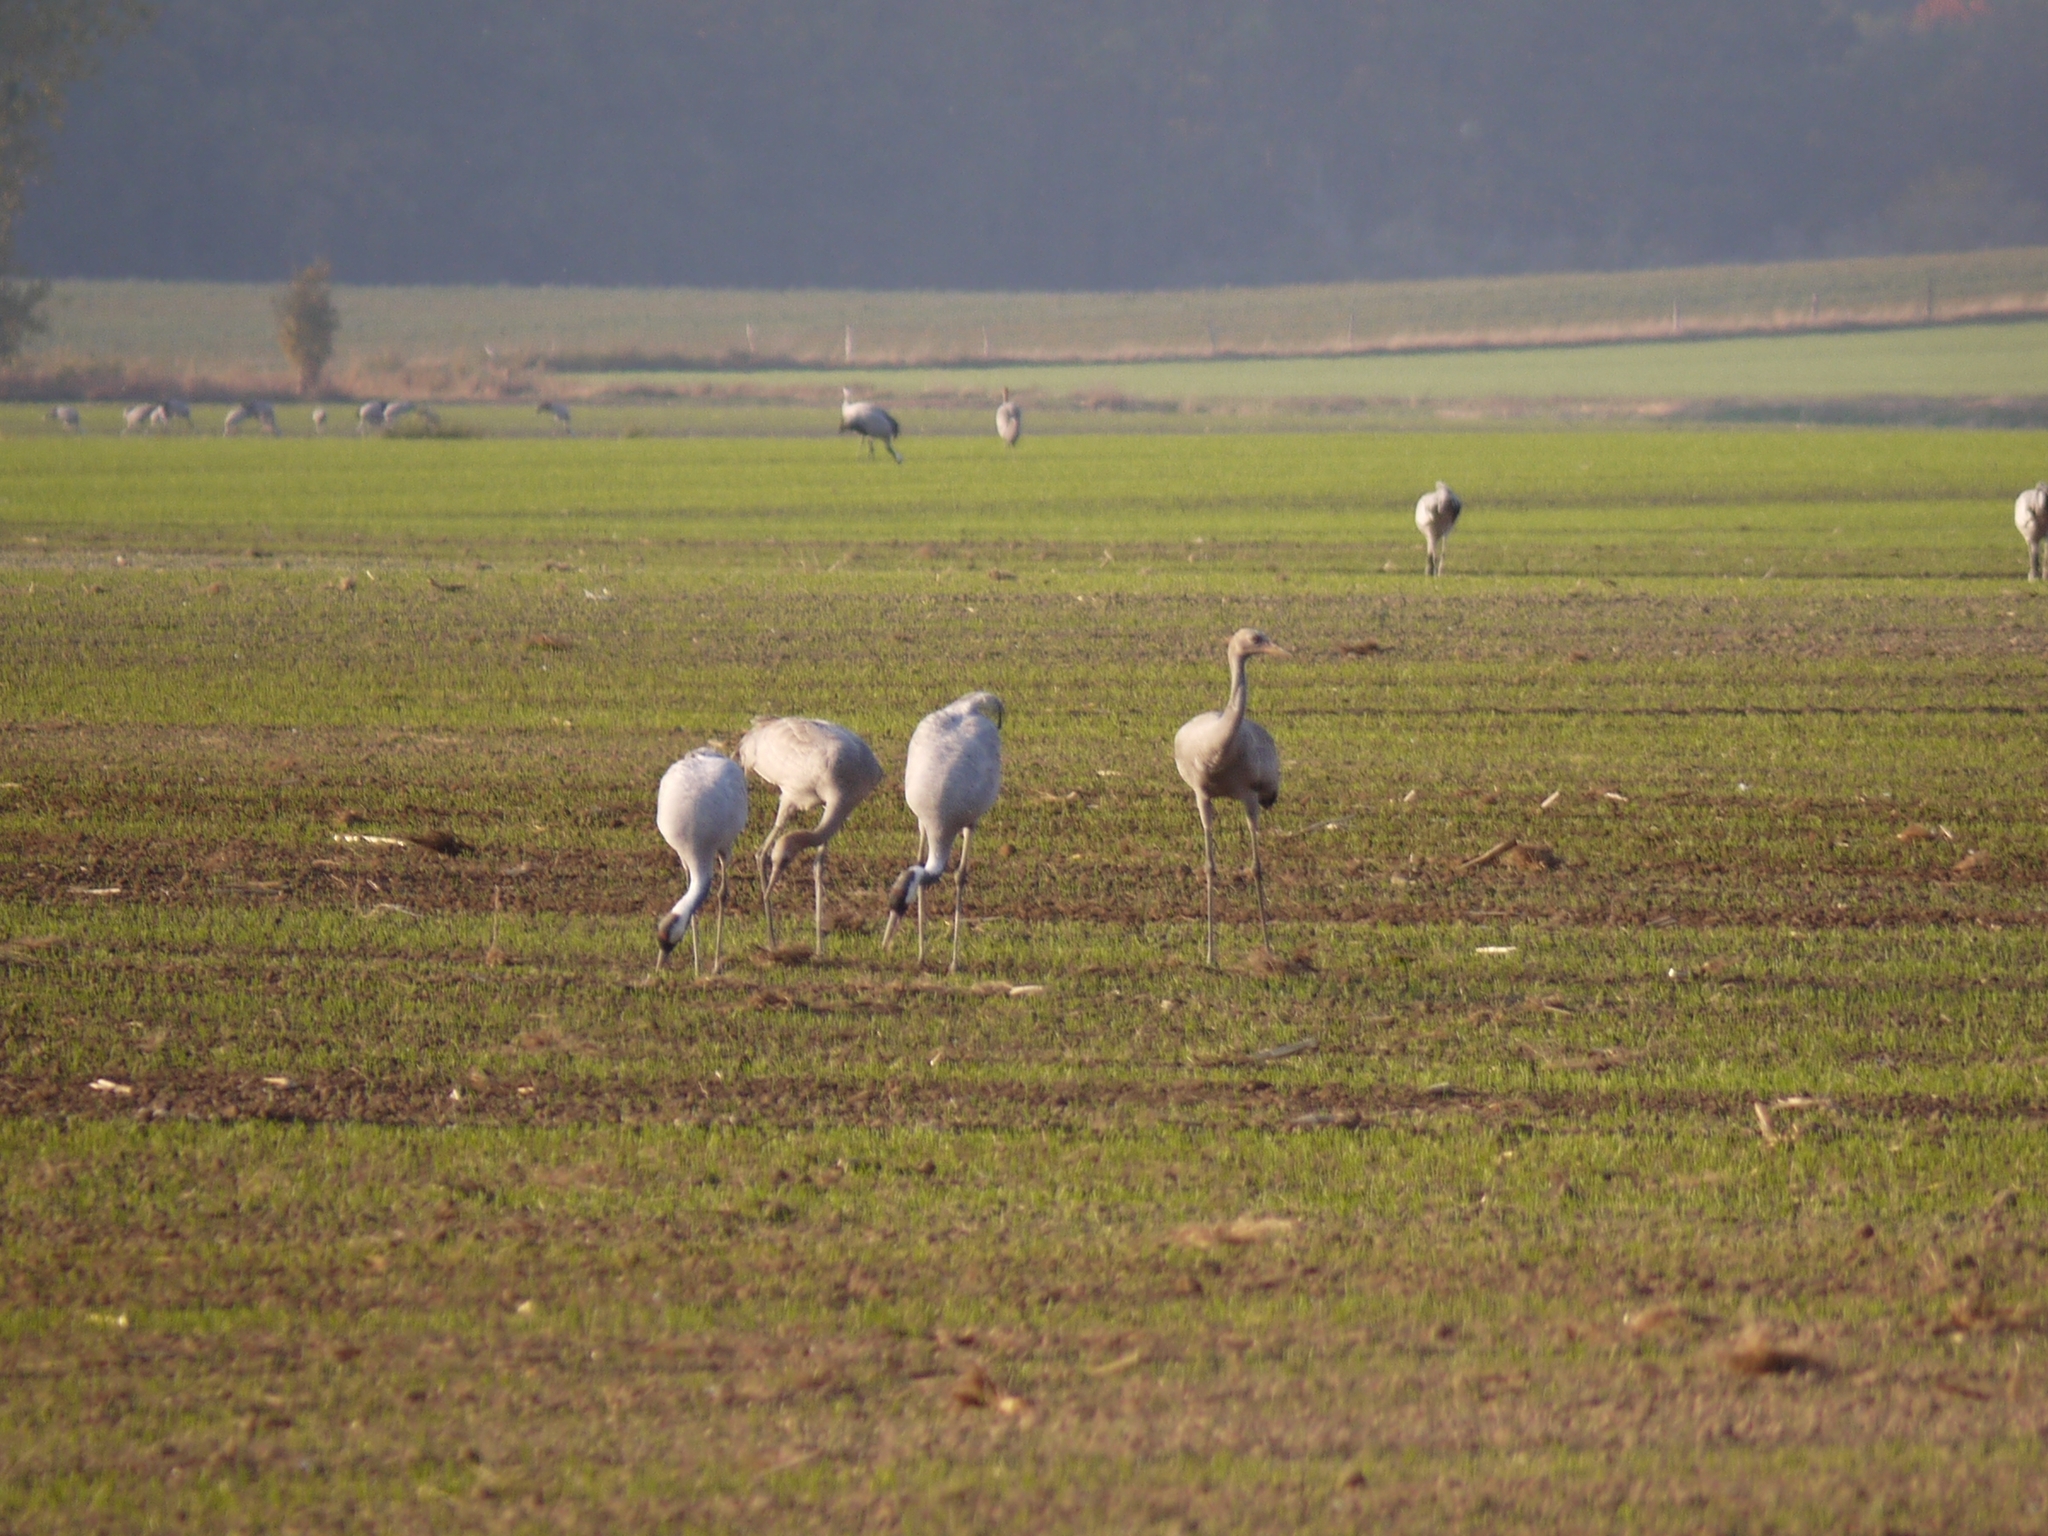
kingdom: Animalia
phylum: Chordata
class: Aves
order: Gruiformes
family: Gruidae
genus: Grus
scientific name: Grus grus
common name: Common crane
